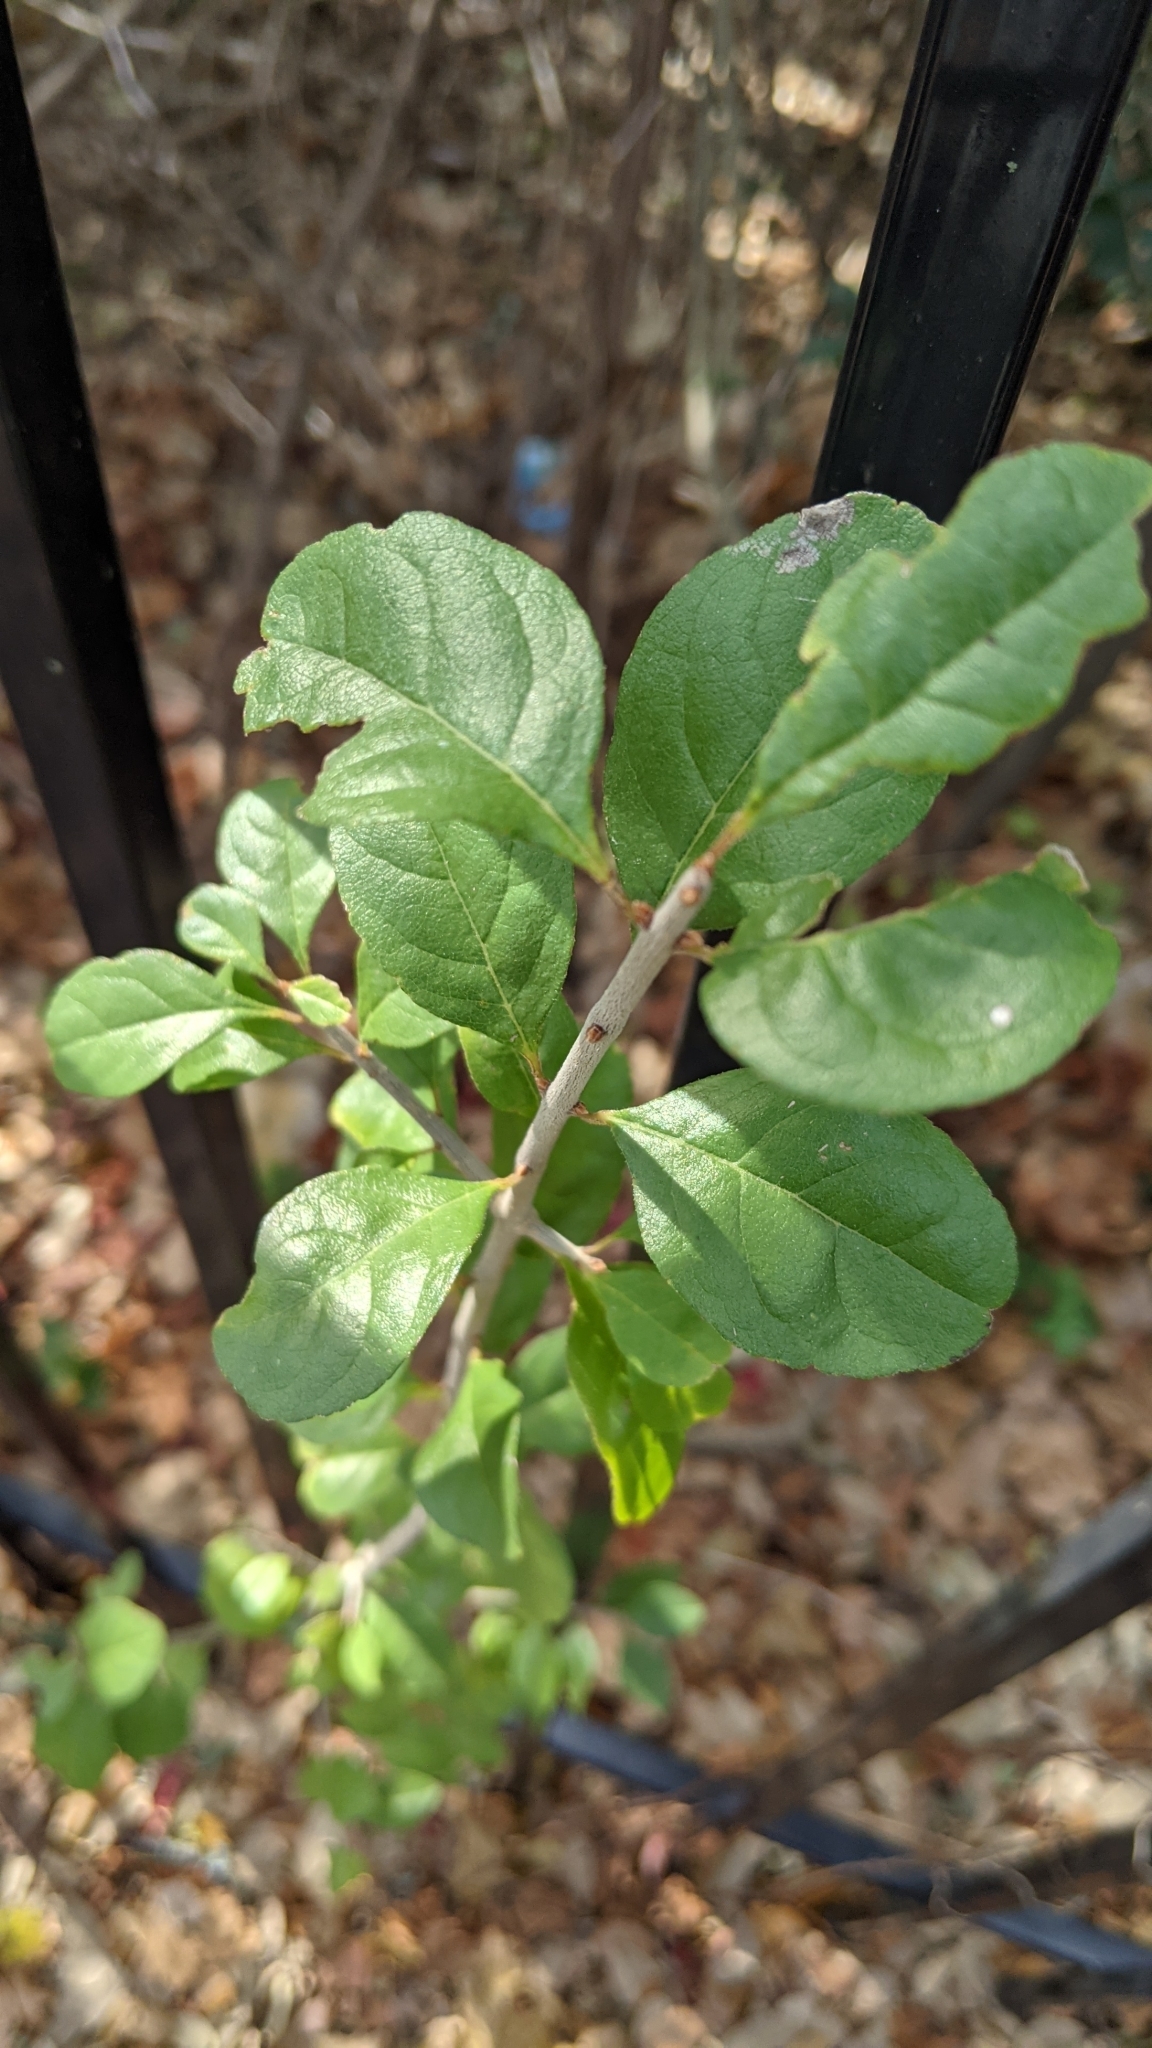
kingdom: Plantae
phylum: Tracheophyta
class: Magnoliopsida
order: Lamiales
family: Oleaceae
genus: Forestiera
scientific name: Forestiera pubescens
